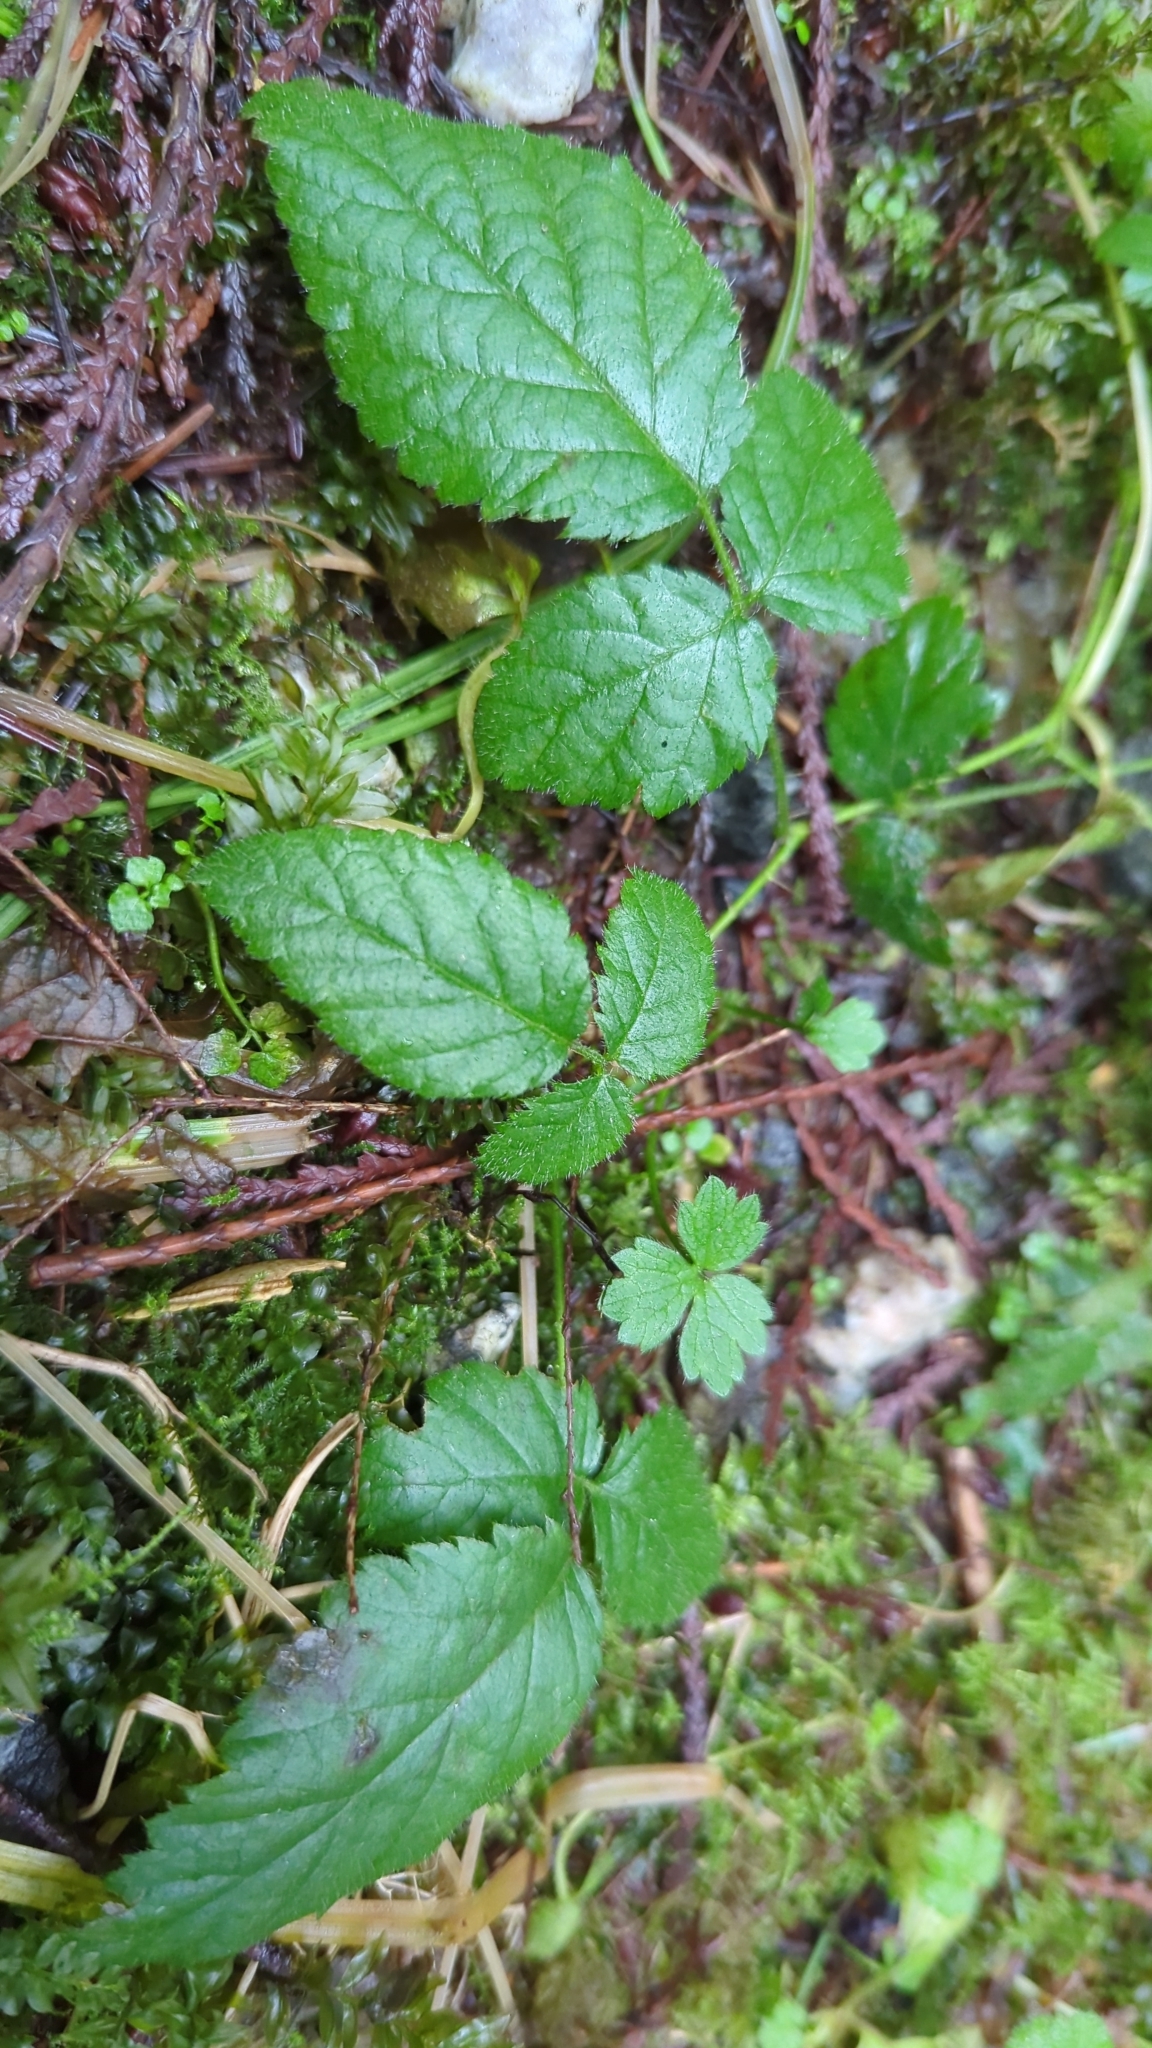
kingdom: Plantae
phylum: Tracheophyta
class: Magnoliopsida
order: Rosales
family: Rosaceae
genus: Rubus
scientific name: Rubus ursinus
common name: Pacific blackberry
